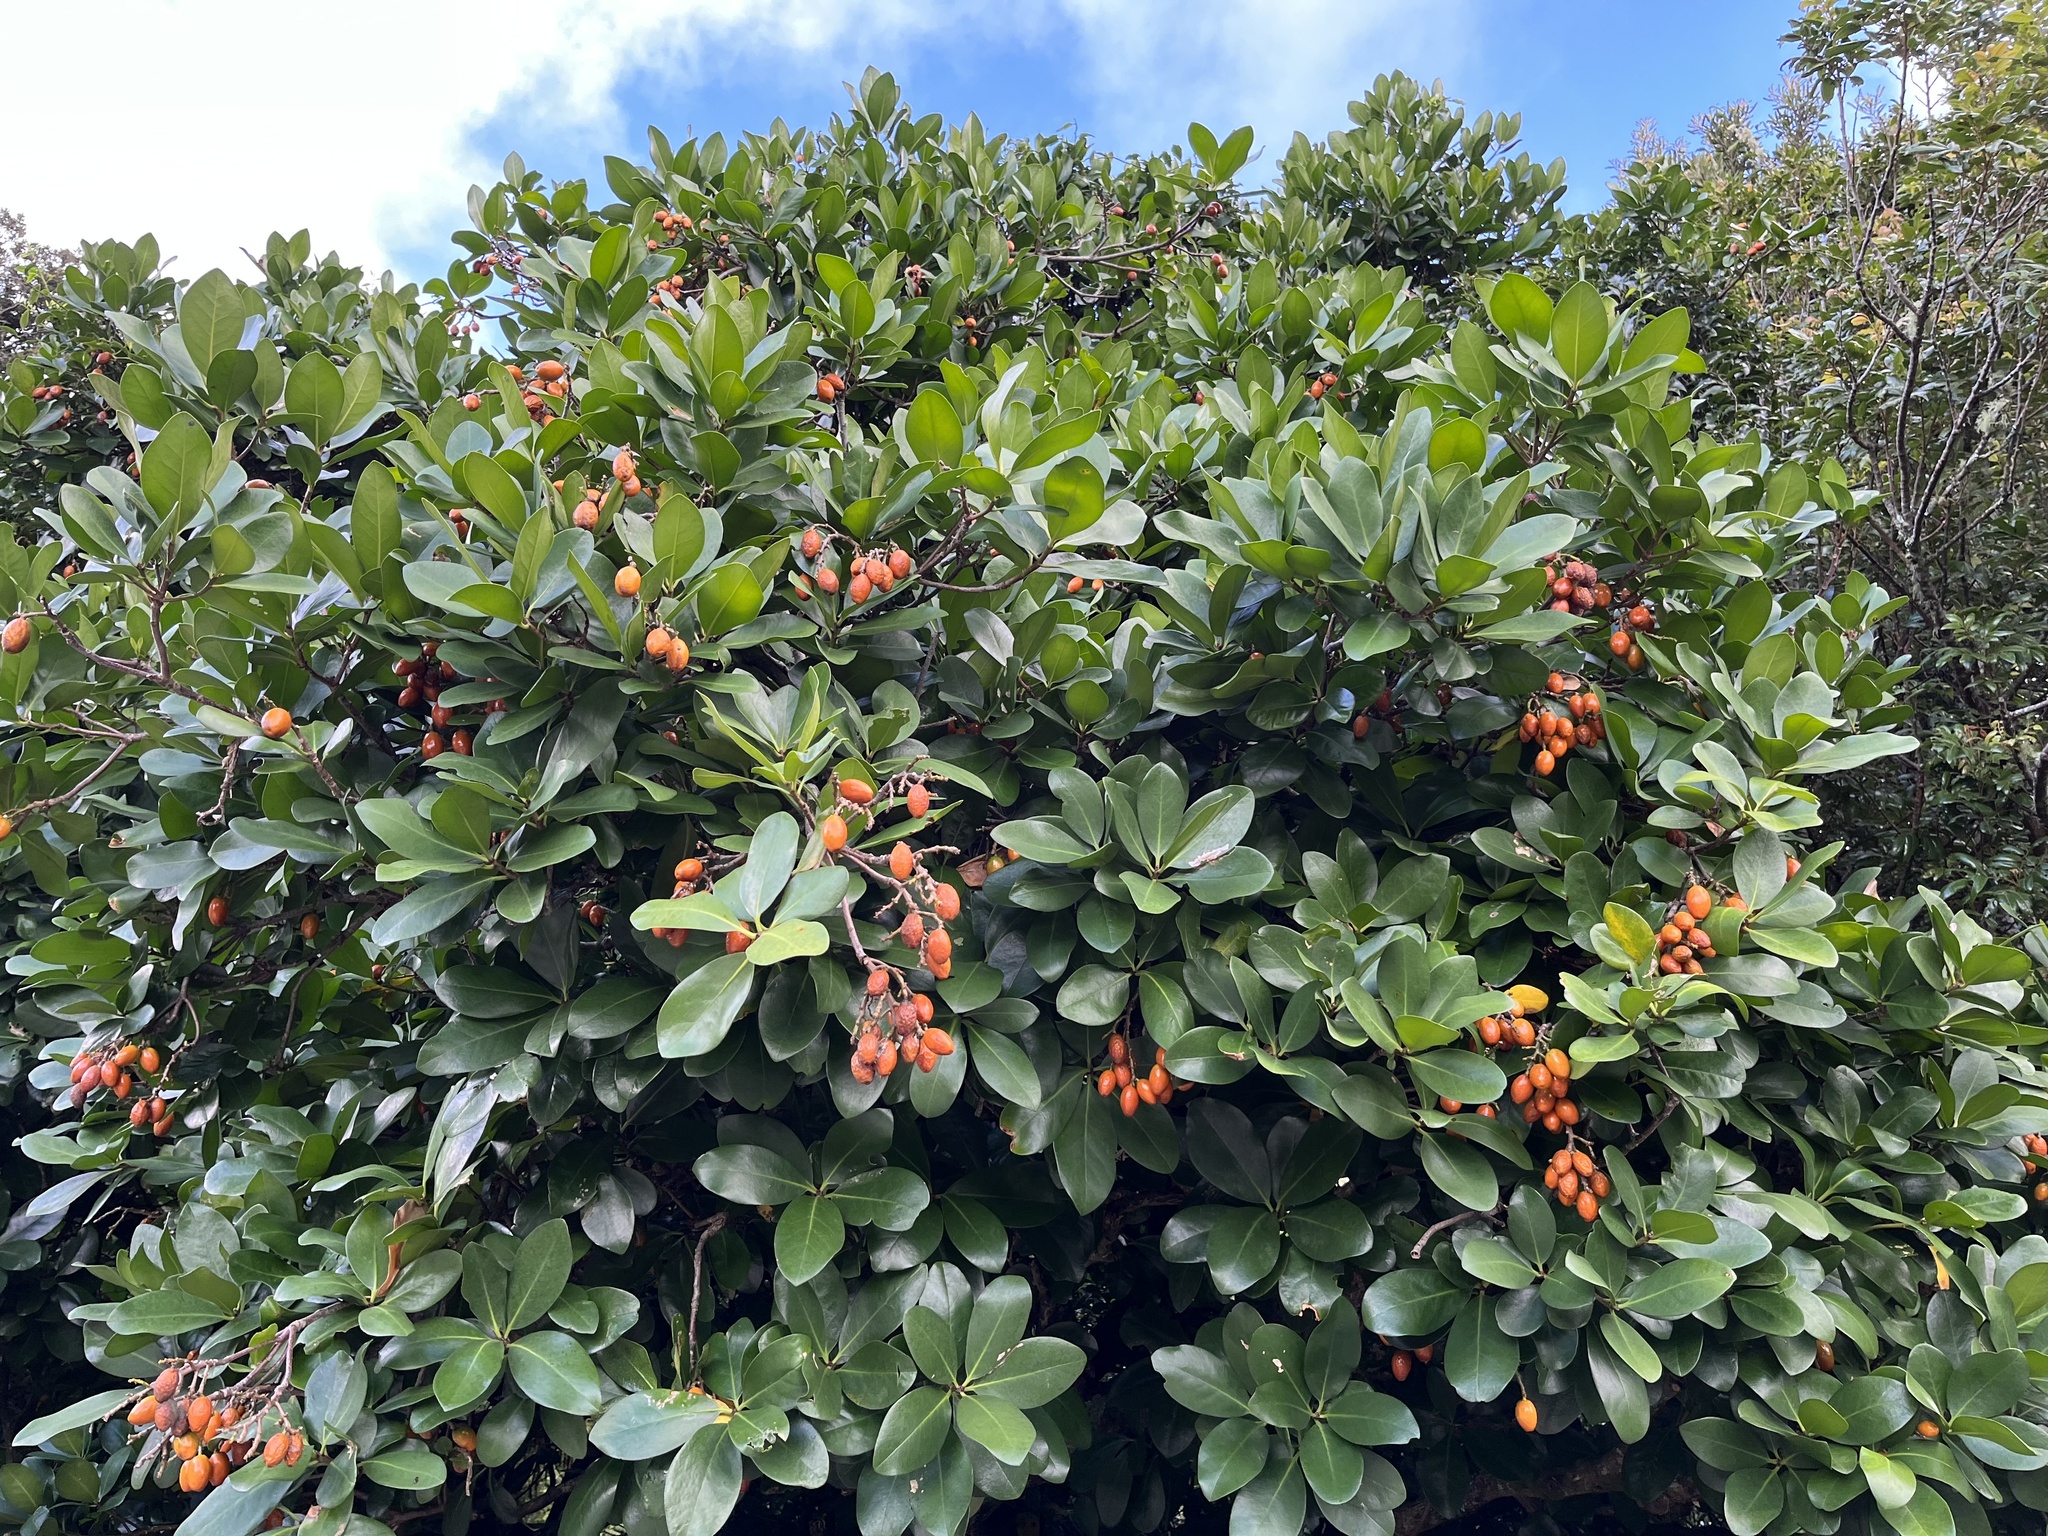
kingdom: Plantae
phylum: Tracheophyta
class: Magnoliopsida
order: Cucurbitales
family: Corynocarpaceae
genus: Corynocarpus
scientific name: Corynocarpus laevigatus
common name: New zealand laurel
